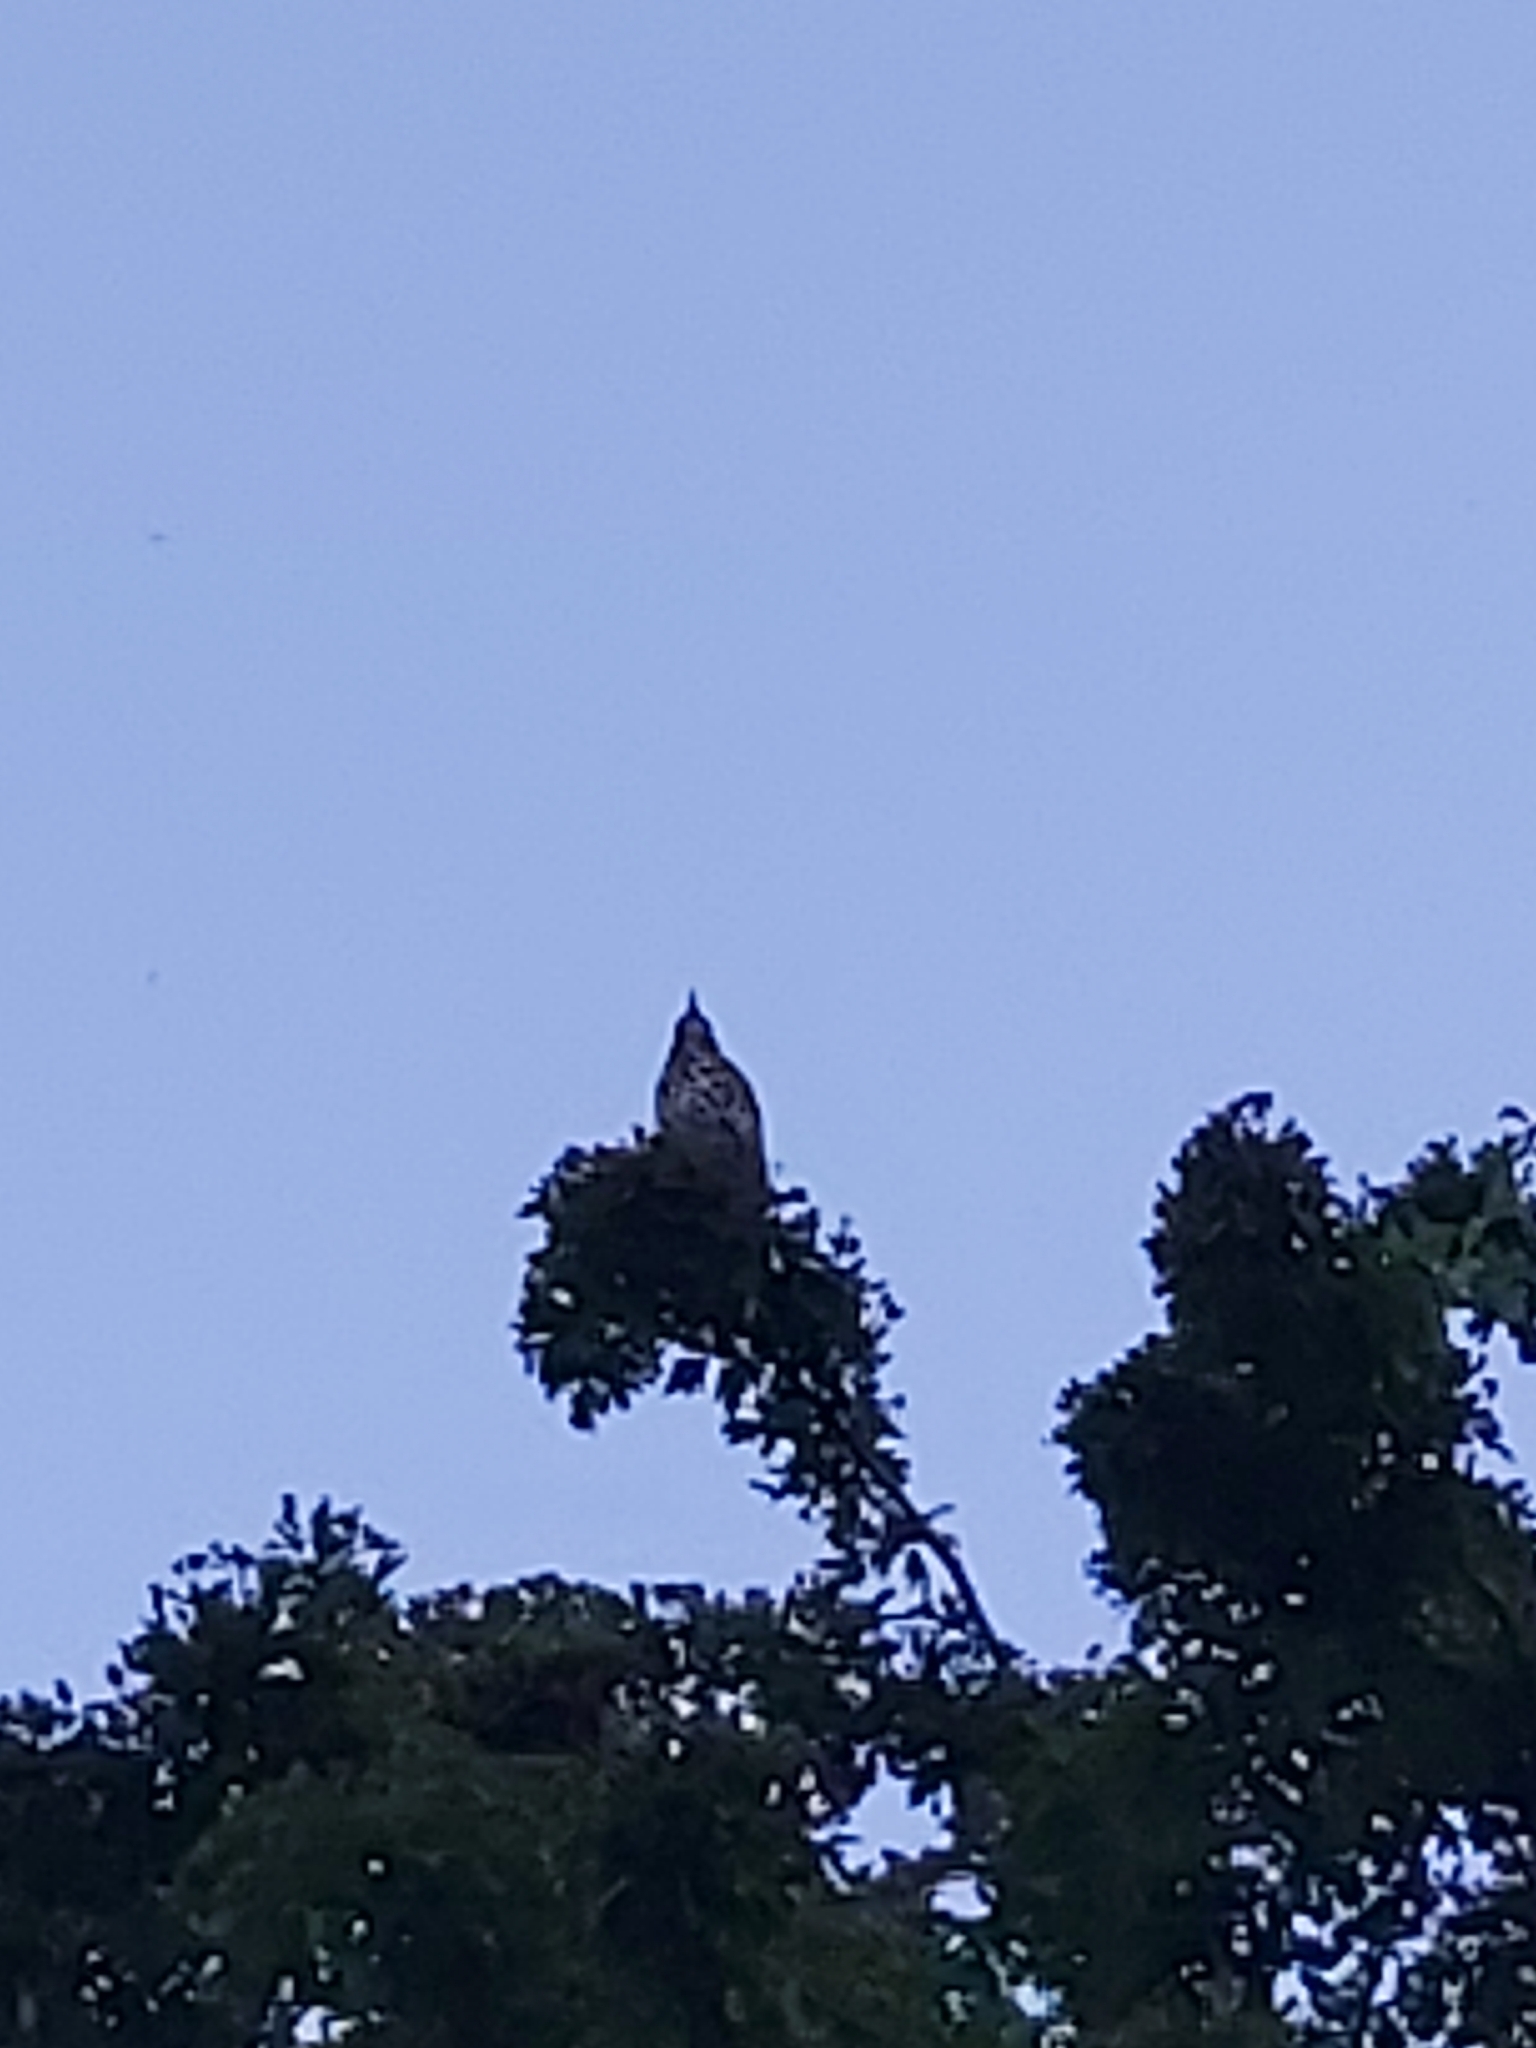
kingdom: Animalia
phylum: Chordata
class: Aves
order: Passeriformes
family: Turdidae
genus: Turdus
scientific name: Turdus philomelos
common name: Song thrush
